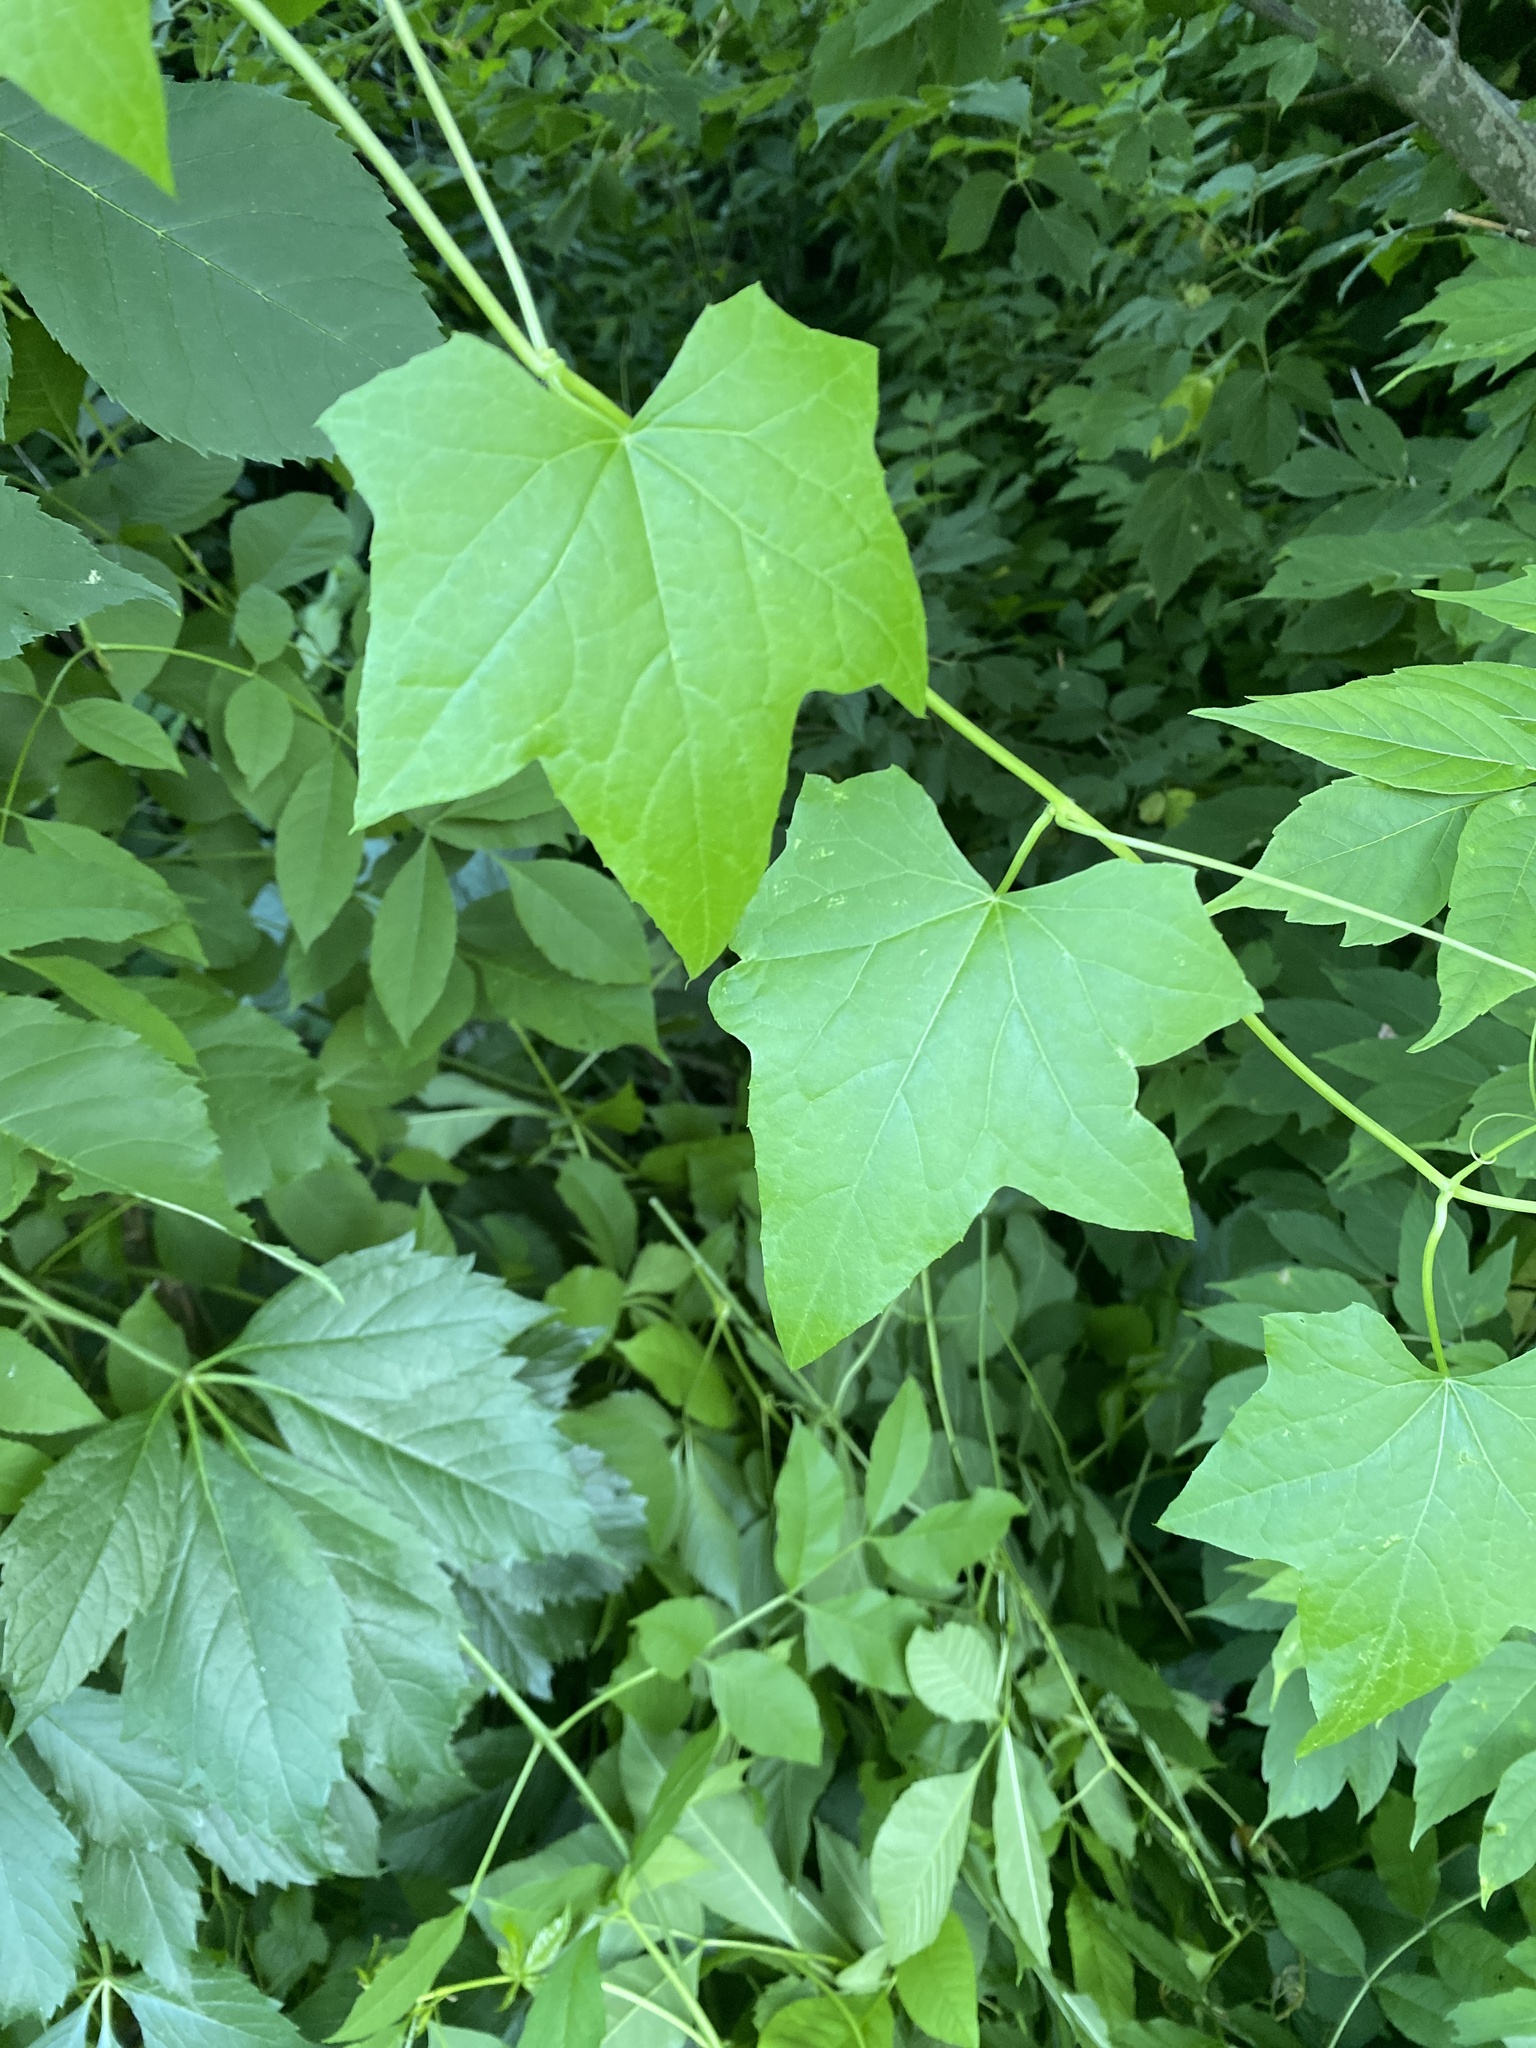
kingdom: Plantae
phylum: Tracheophyta
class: Magnoliopsida
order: Cucurbitales
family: Cucurbitaceae
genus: Echinocystis
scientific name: Echinocystis lobata
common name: Wild cucumber
